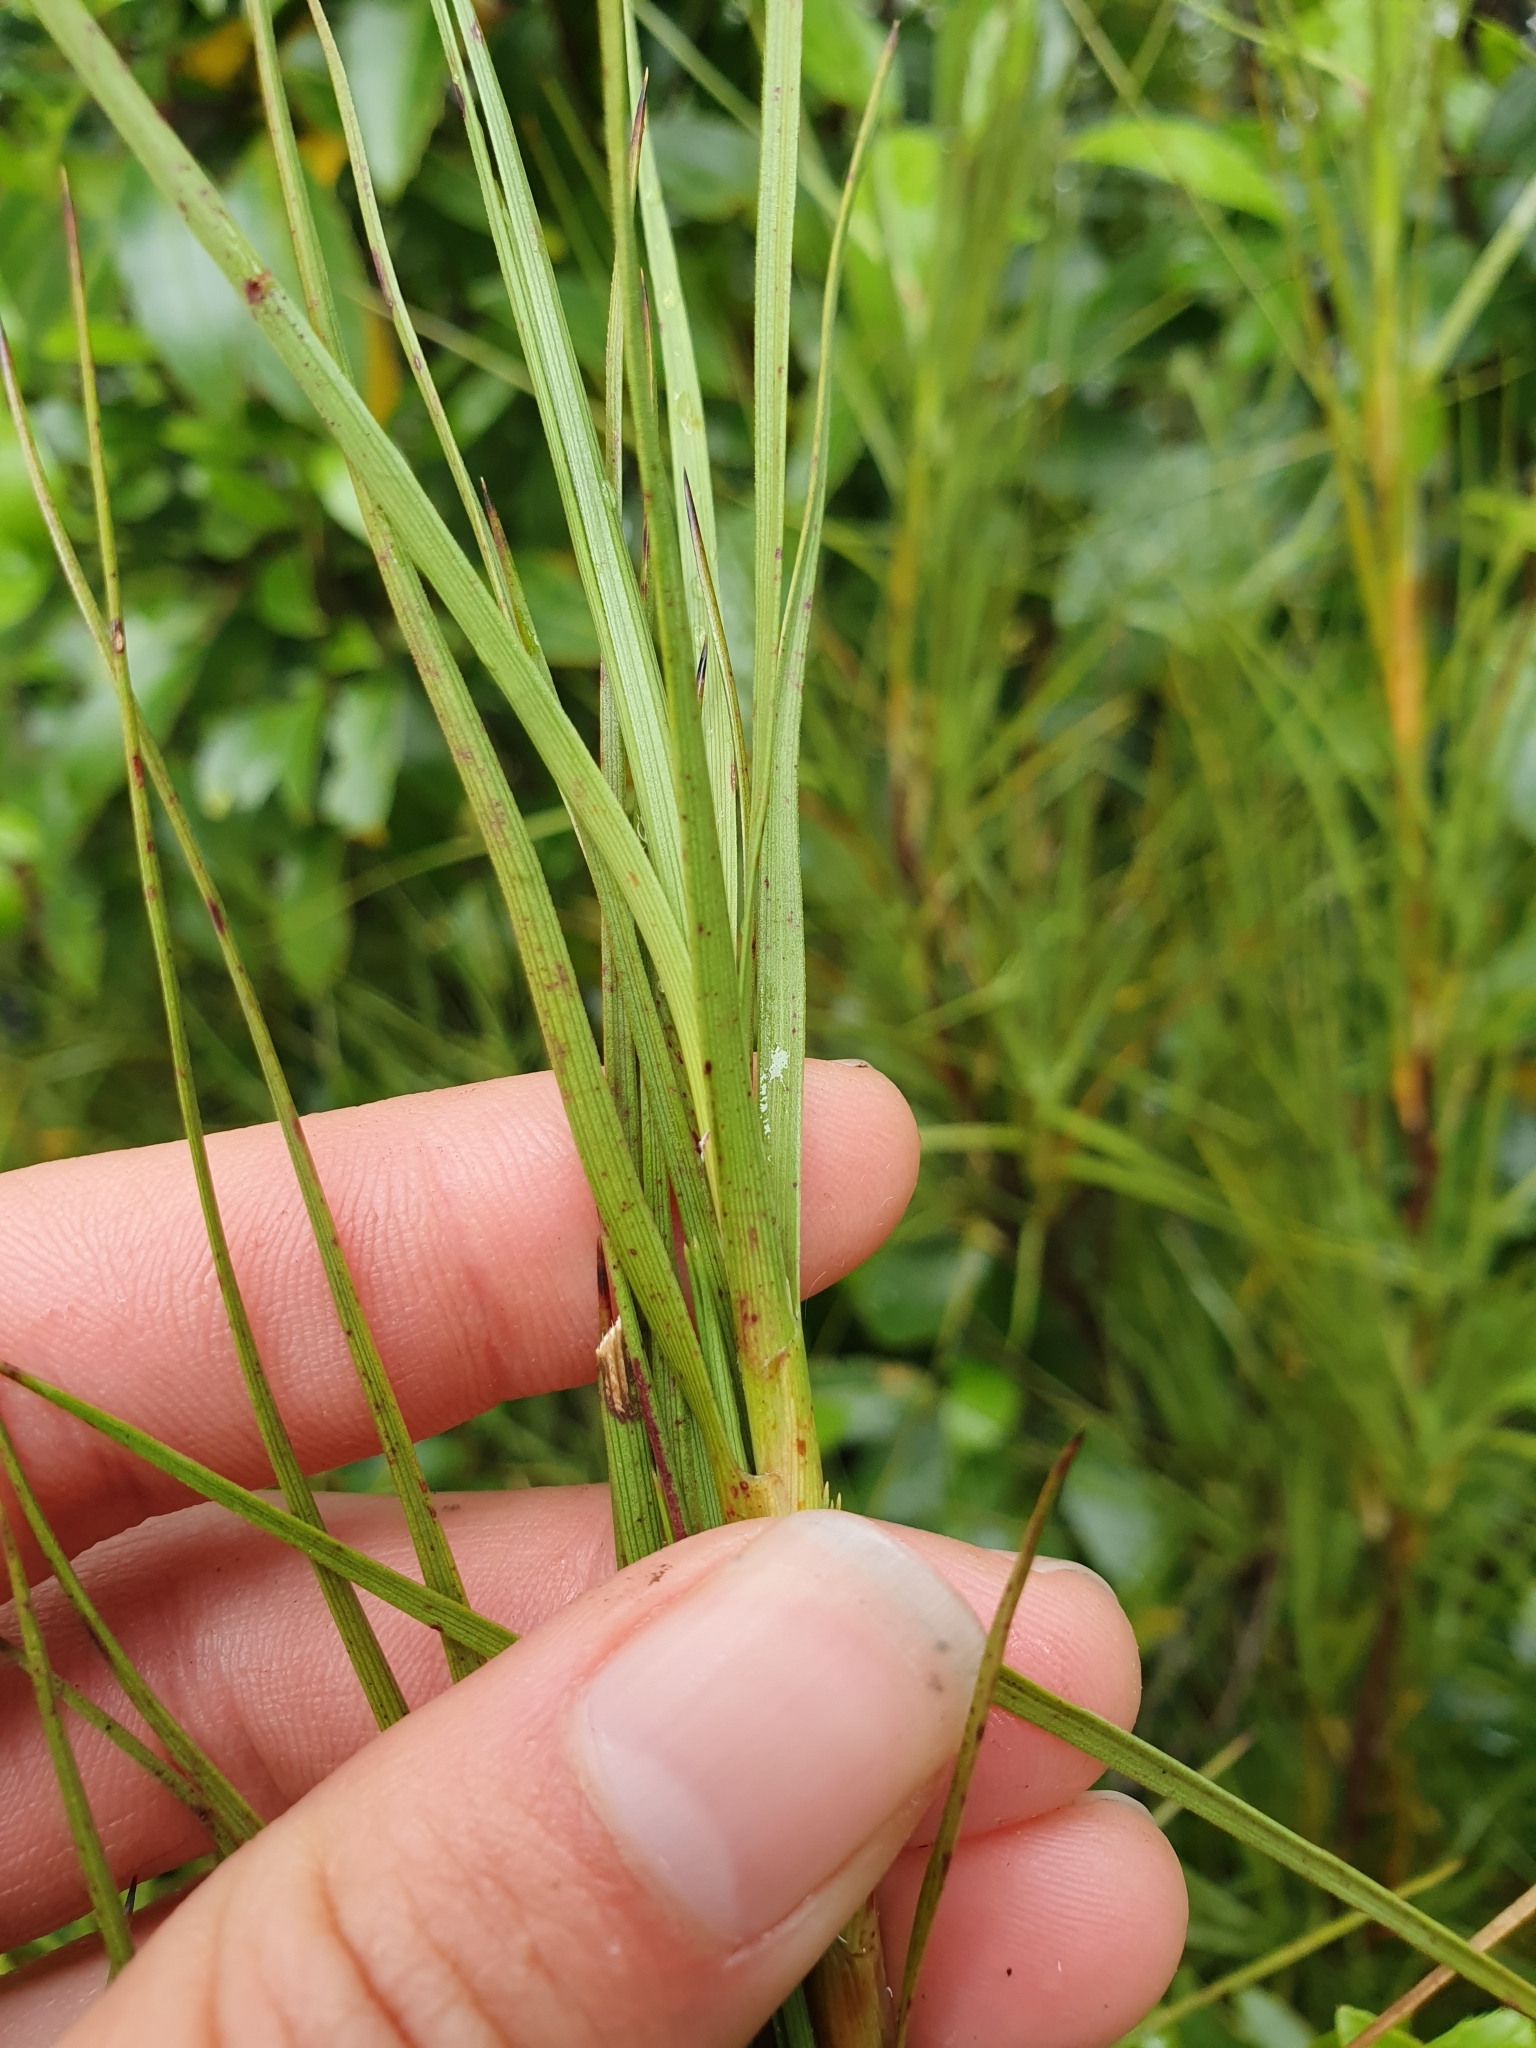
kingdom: Plantae
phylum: Tracheophyta
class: Magnoliopsida
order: Ericales
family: Ericaceae
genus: Dracophyllum
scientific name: Dracophyllum longifolium
